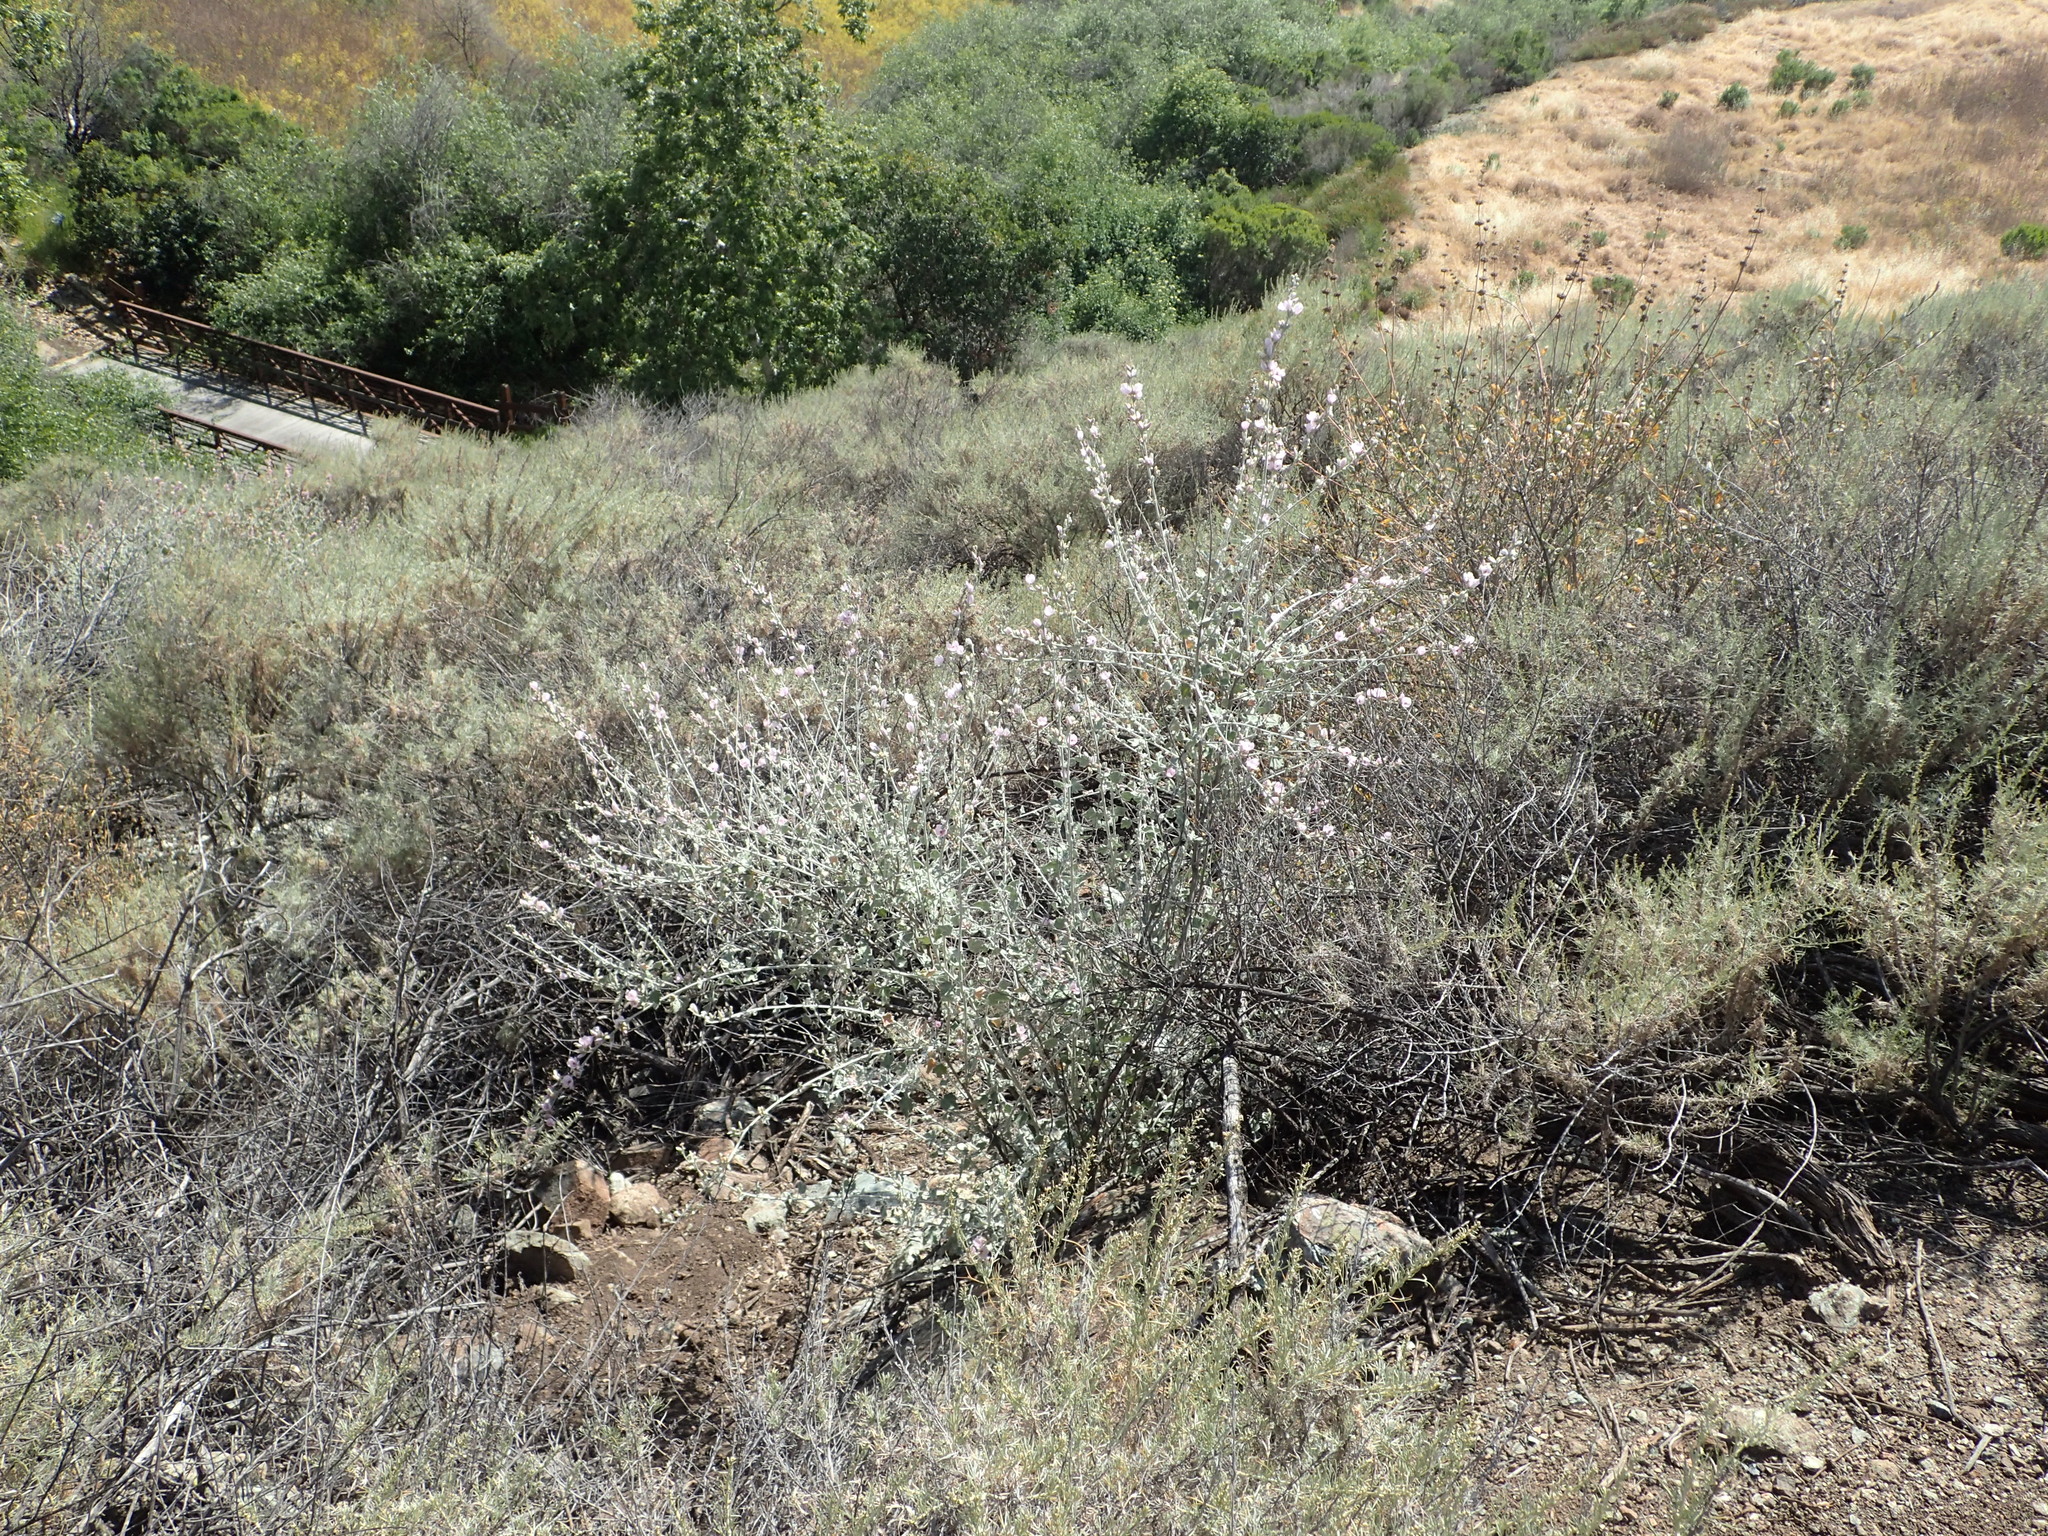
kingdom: Plantae
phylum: Tracheophyta
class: Magnoliopsida
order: Malvales
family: Malvaceae
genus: Malacothamnus
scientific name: Malacothamnus fasciculatus
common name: Sant cruz island bush-mallow
